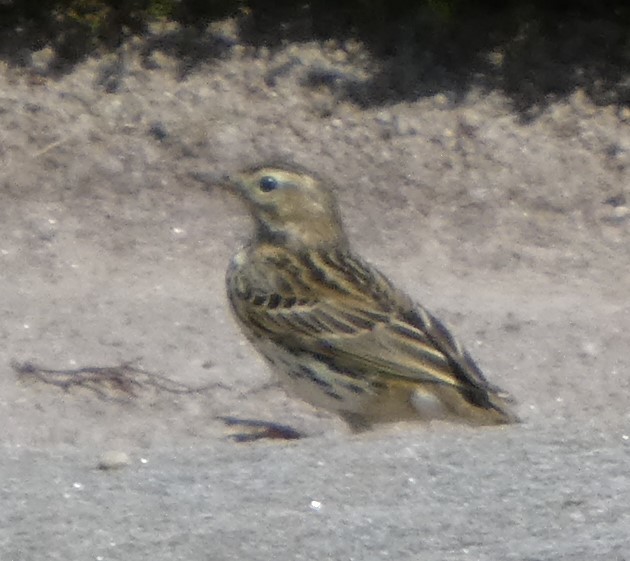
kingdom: Animalia
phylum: Chordata
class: Aves
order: Passeriformes
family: Motacillidae
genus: Anthus
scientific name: Anthus pratensis
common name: Meadow pipit
